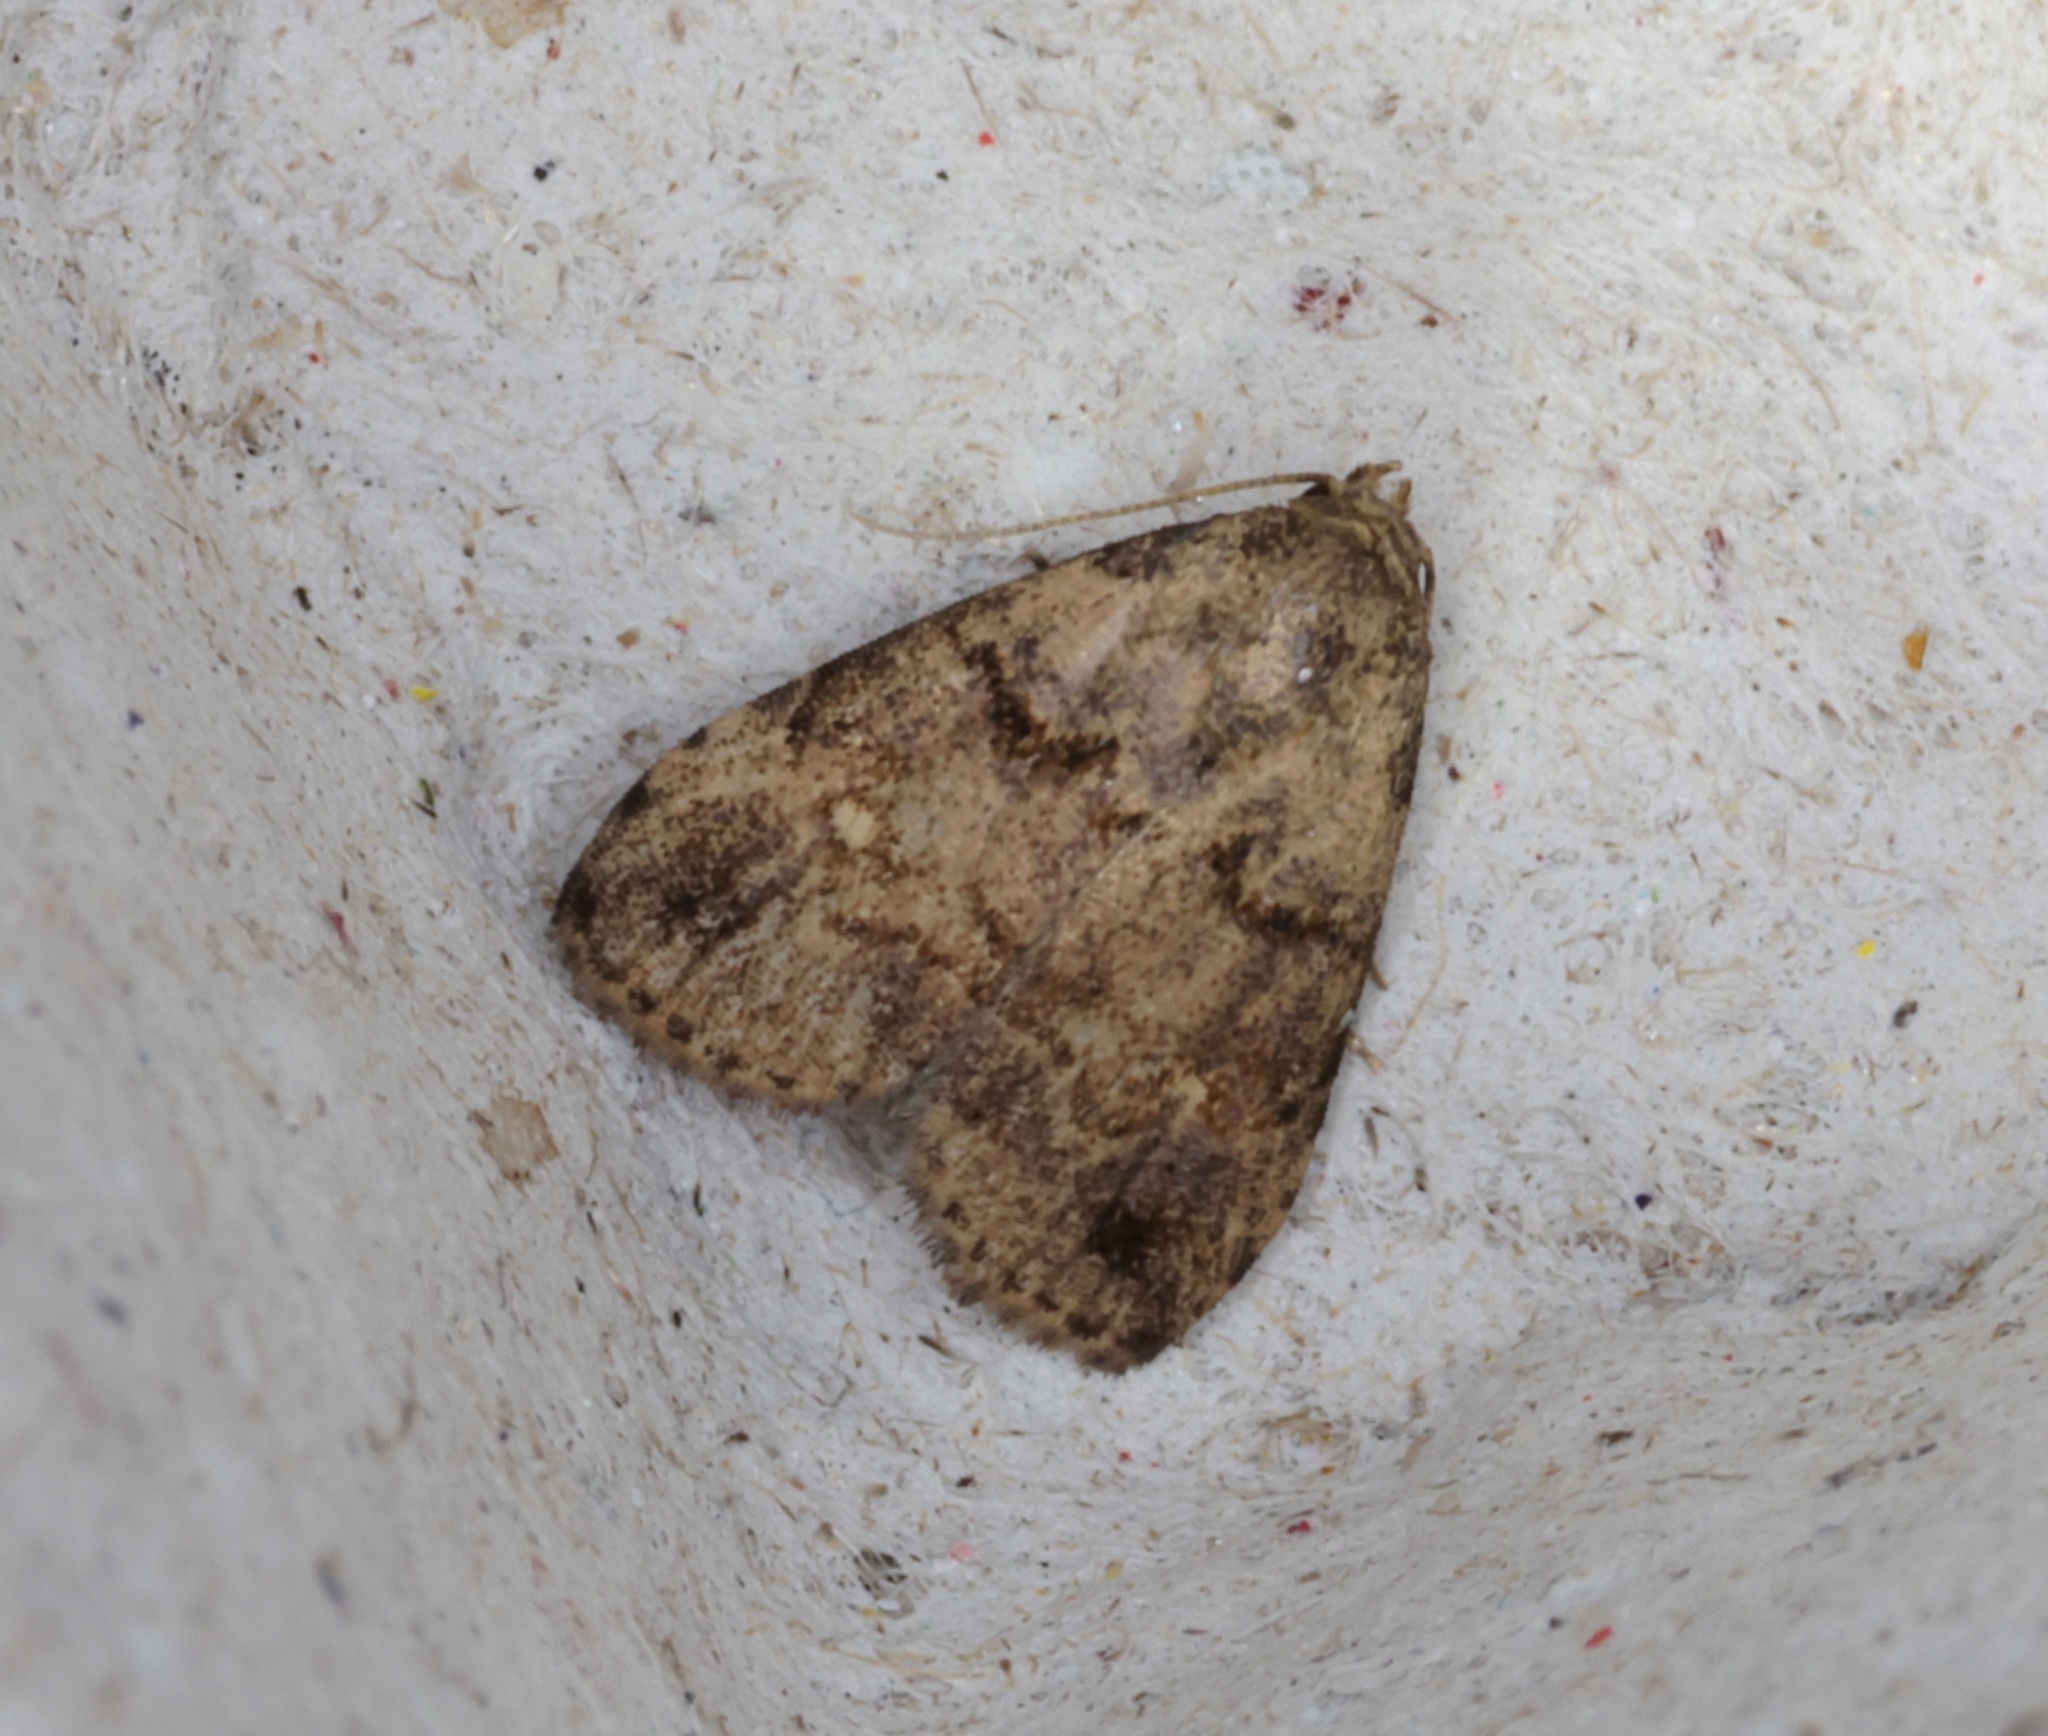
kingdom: Animalia
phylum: Arthropoda
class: Insecta
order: Lepidoptera
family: Erebidae
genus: Bellulia
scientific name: Bellulia galsworthyi
